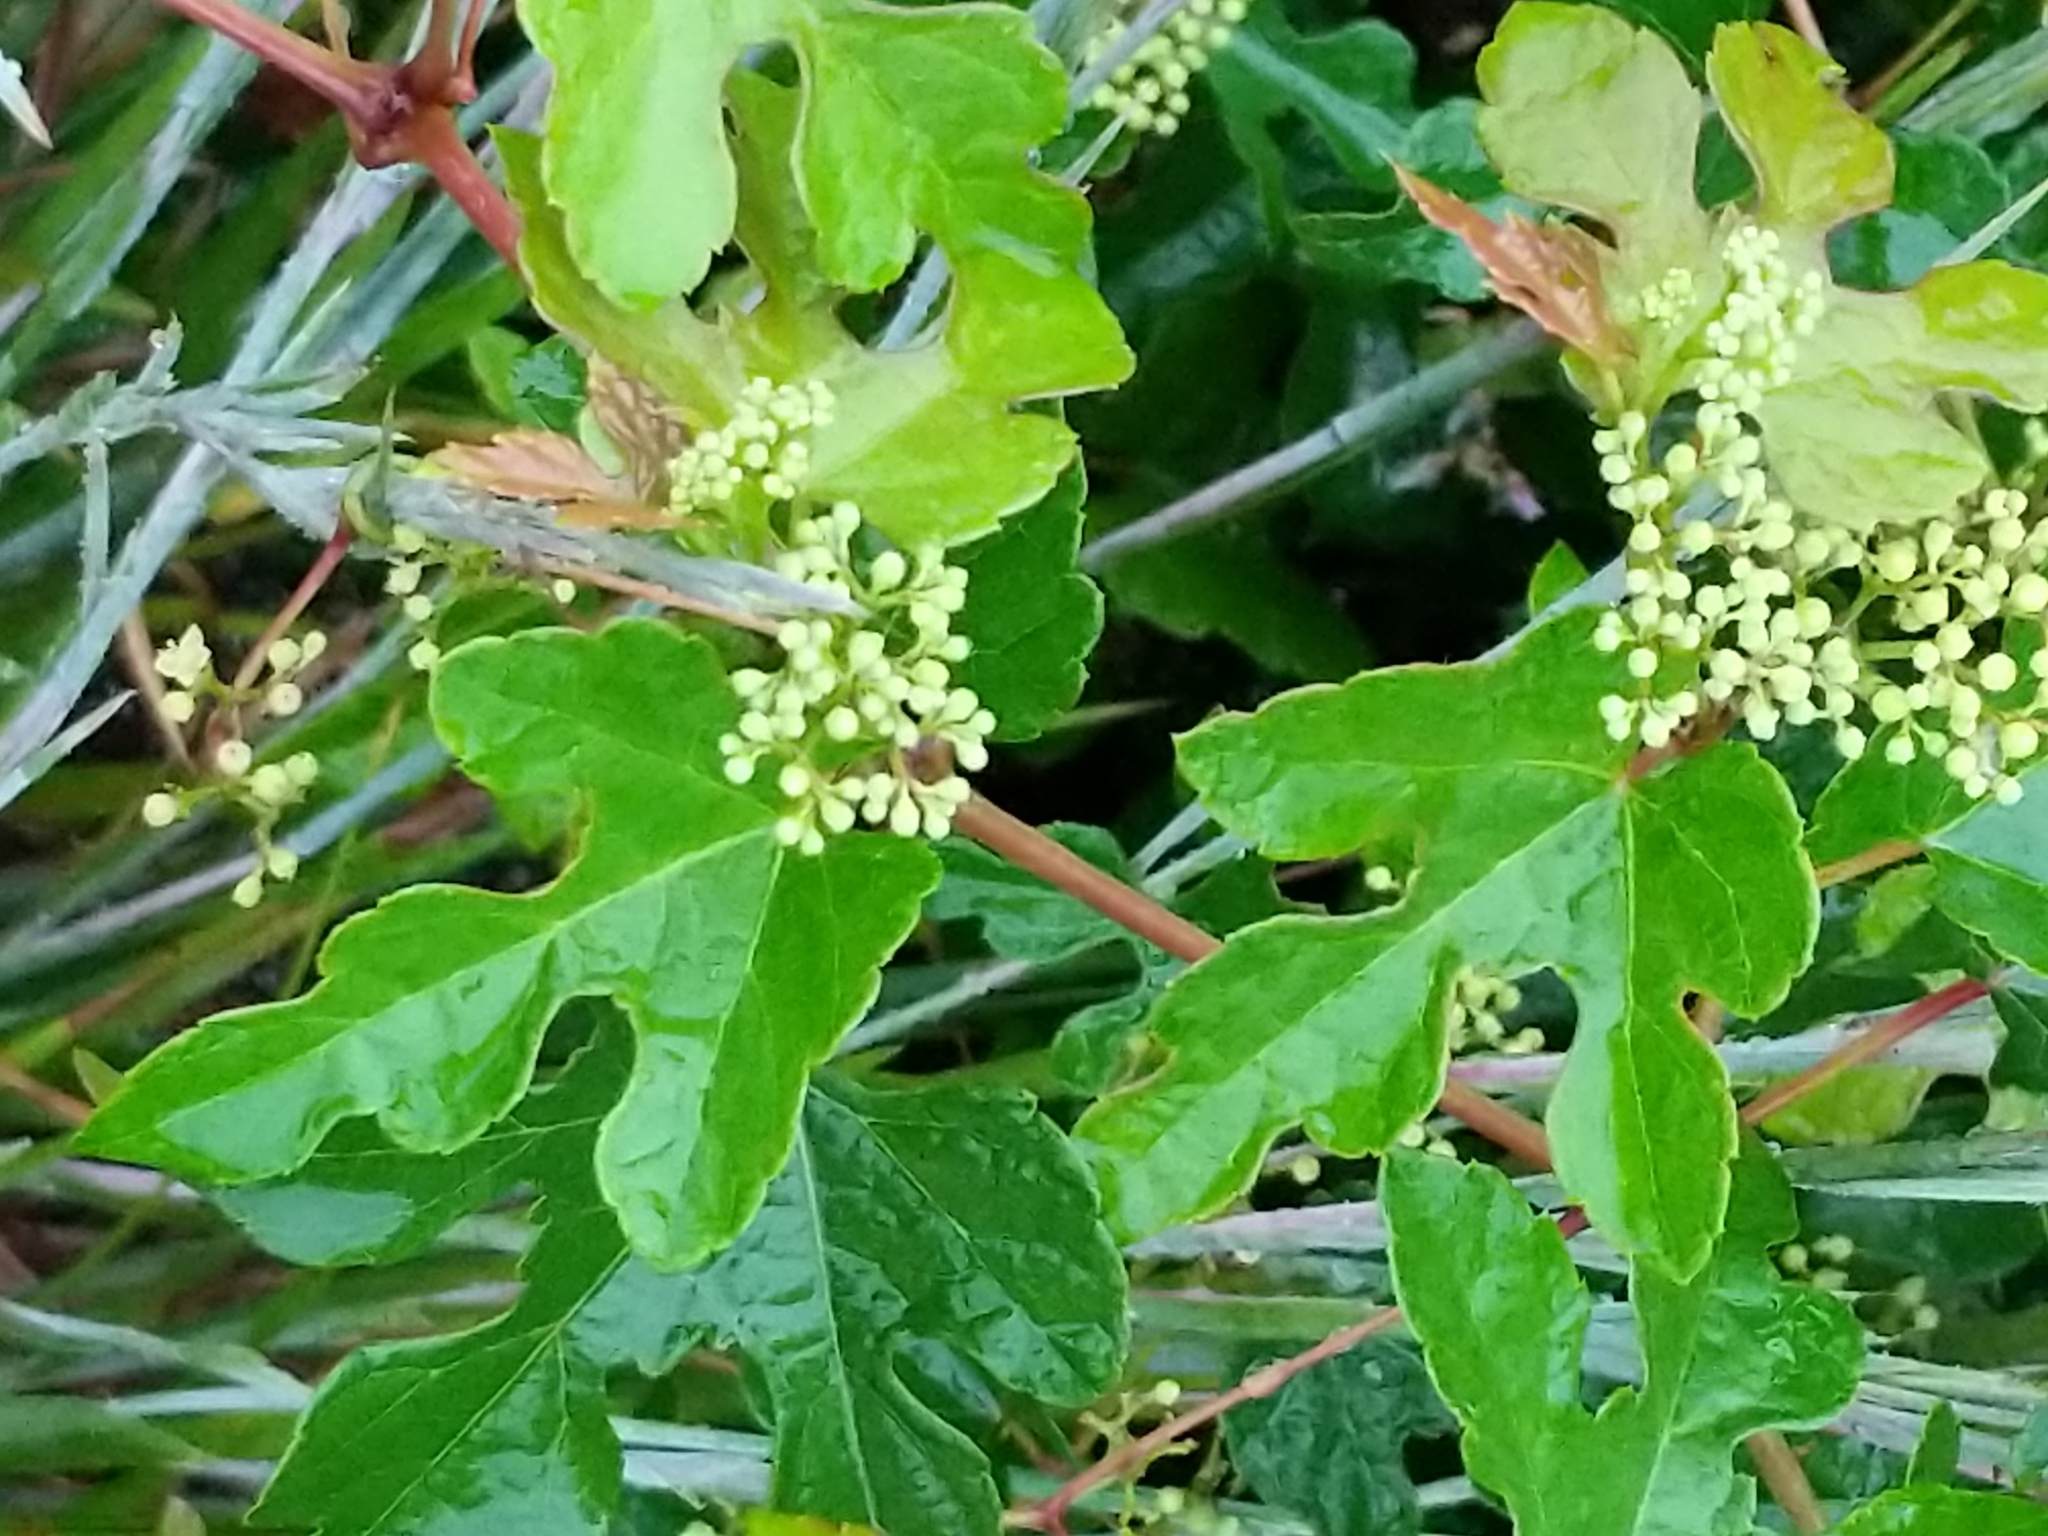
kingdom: Plantae
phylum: Tracheophyta
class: Magnoliopsida
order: Vitales
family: Vitaceae
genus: Ampelopsis
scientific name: Ampelopsis glandulosa
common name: Amur peppervine
